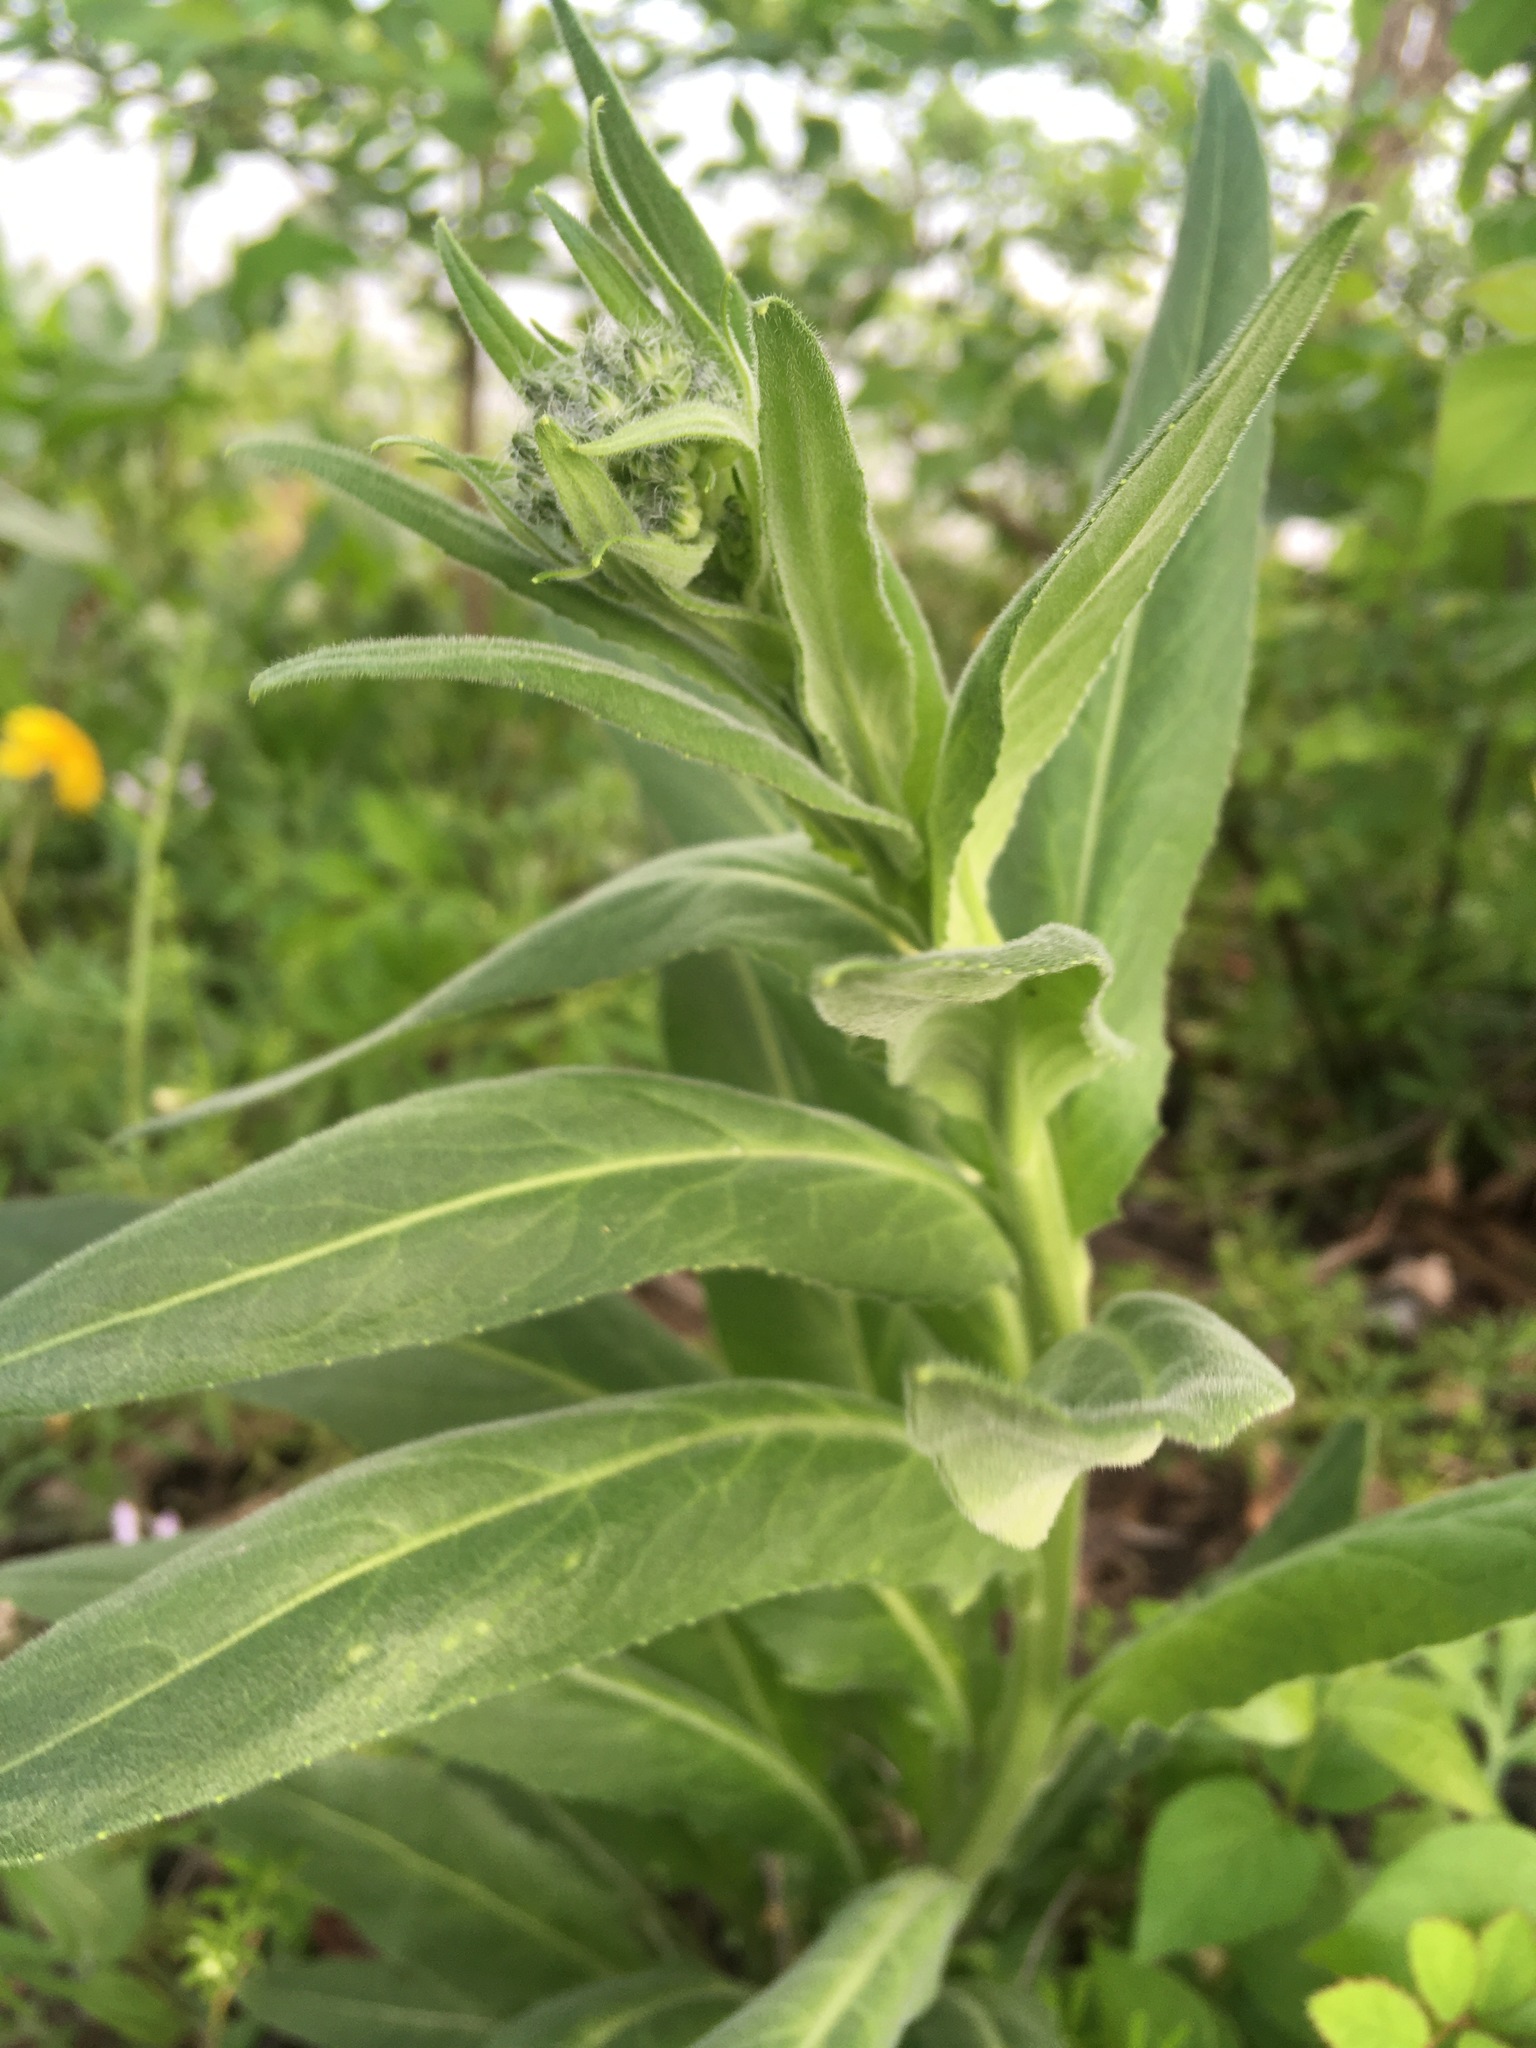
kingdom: Plantae
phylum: Tracheophyta
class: Magnoliopsida
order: Asterales
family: Asteraceae
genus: Erigeron
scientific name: Erigeron philadelphicus
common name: Robin's-plantain
